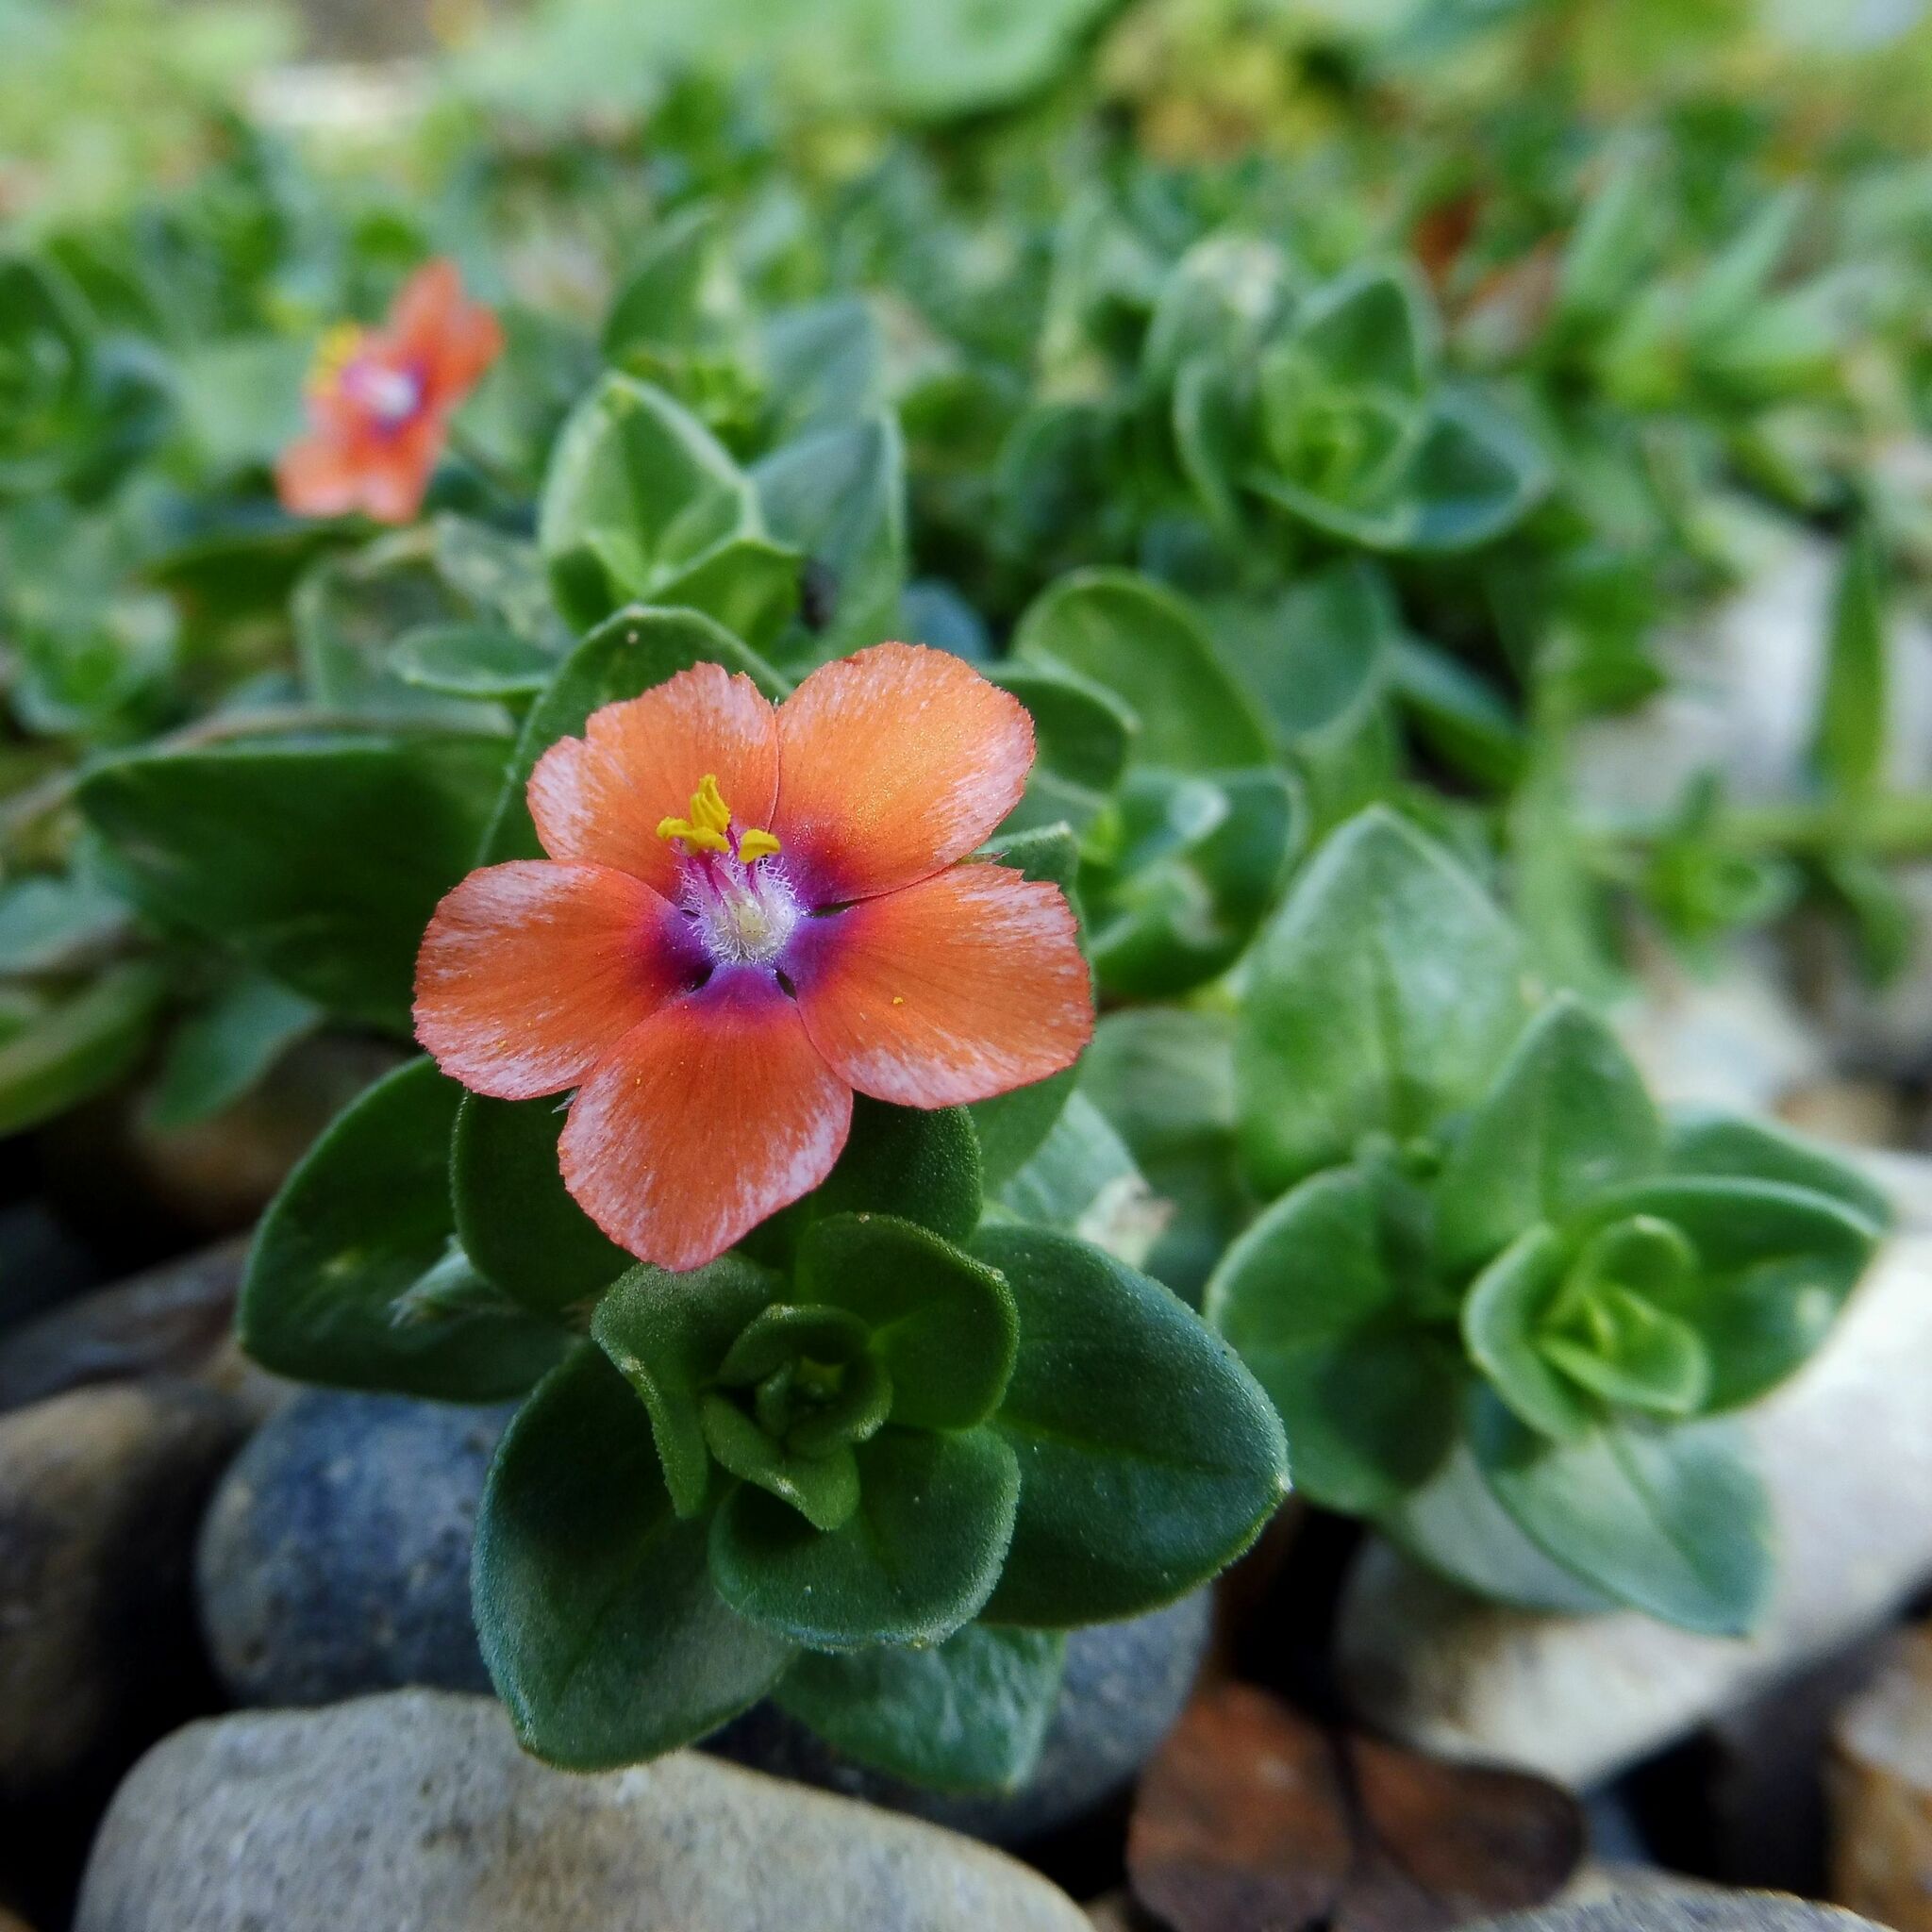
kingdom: Plantae
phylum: Tracheophyta
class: Magnoliopsida
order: Ericales
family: Primulaceae
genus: Lysimachia
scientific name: Lysimachia arvensis
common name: Scarlet pimpernel
